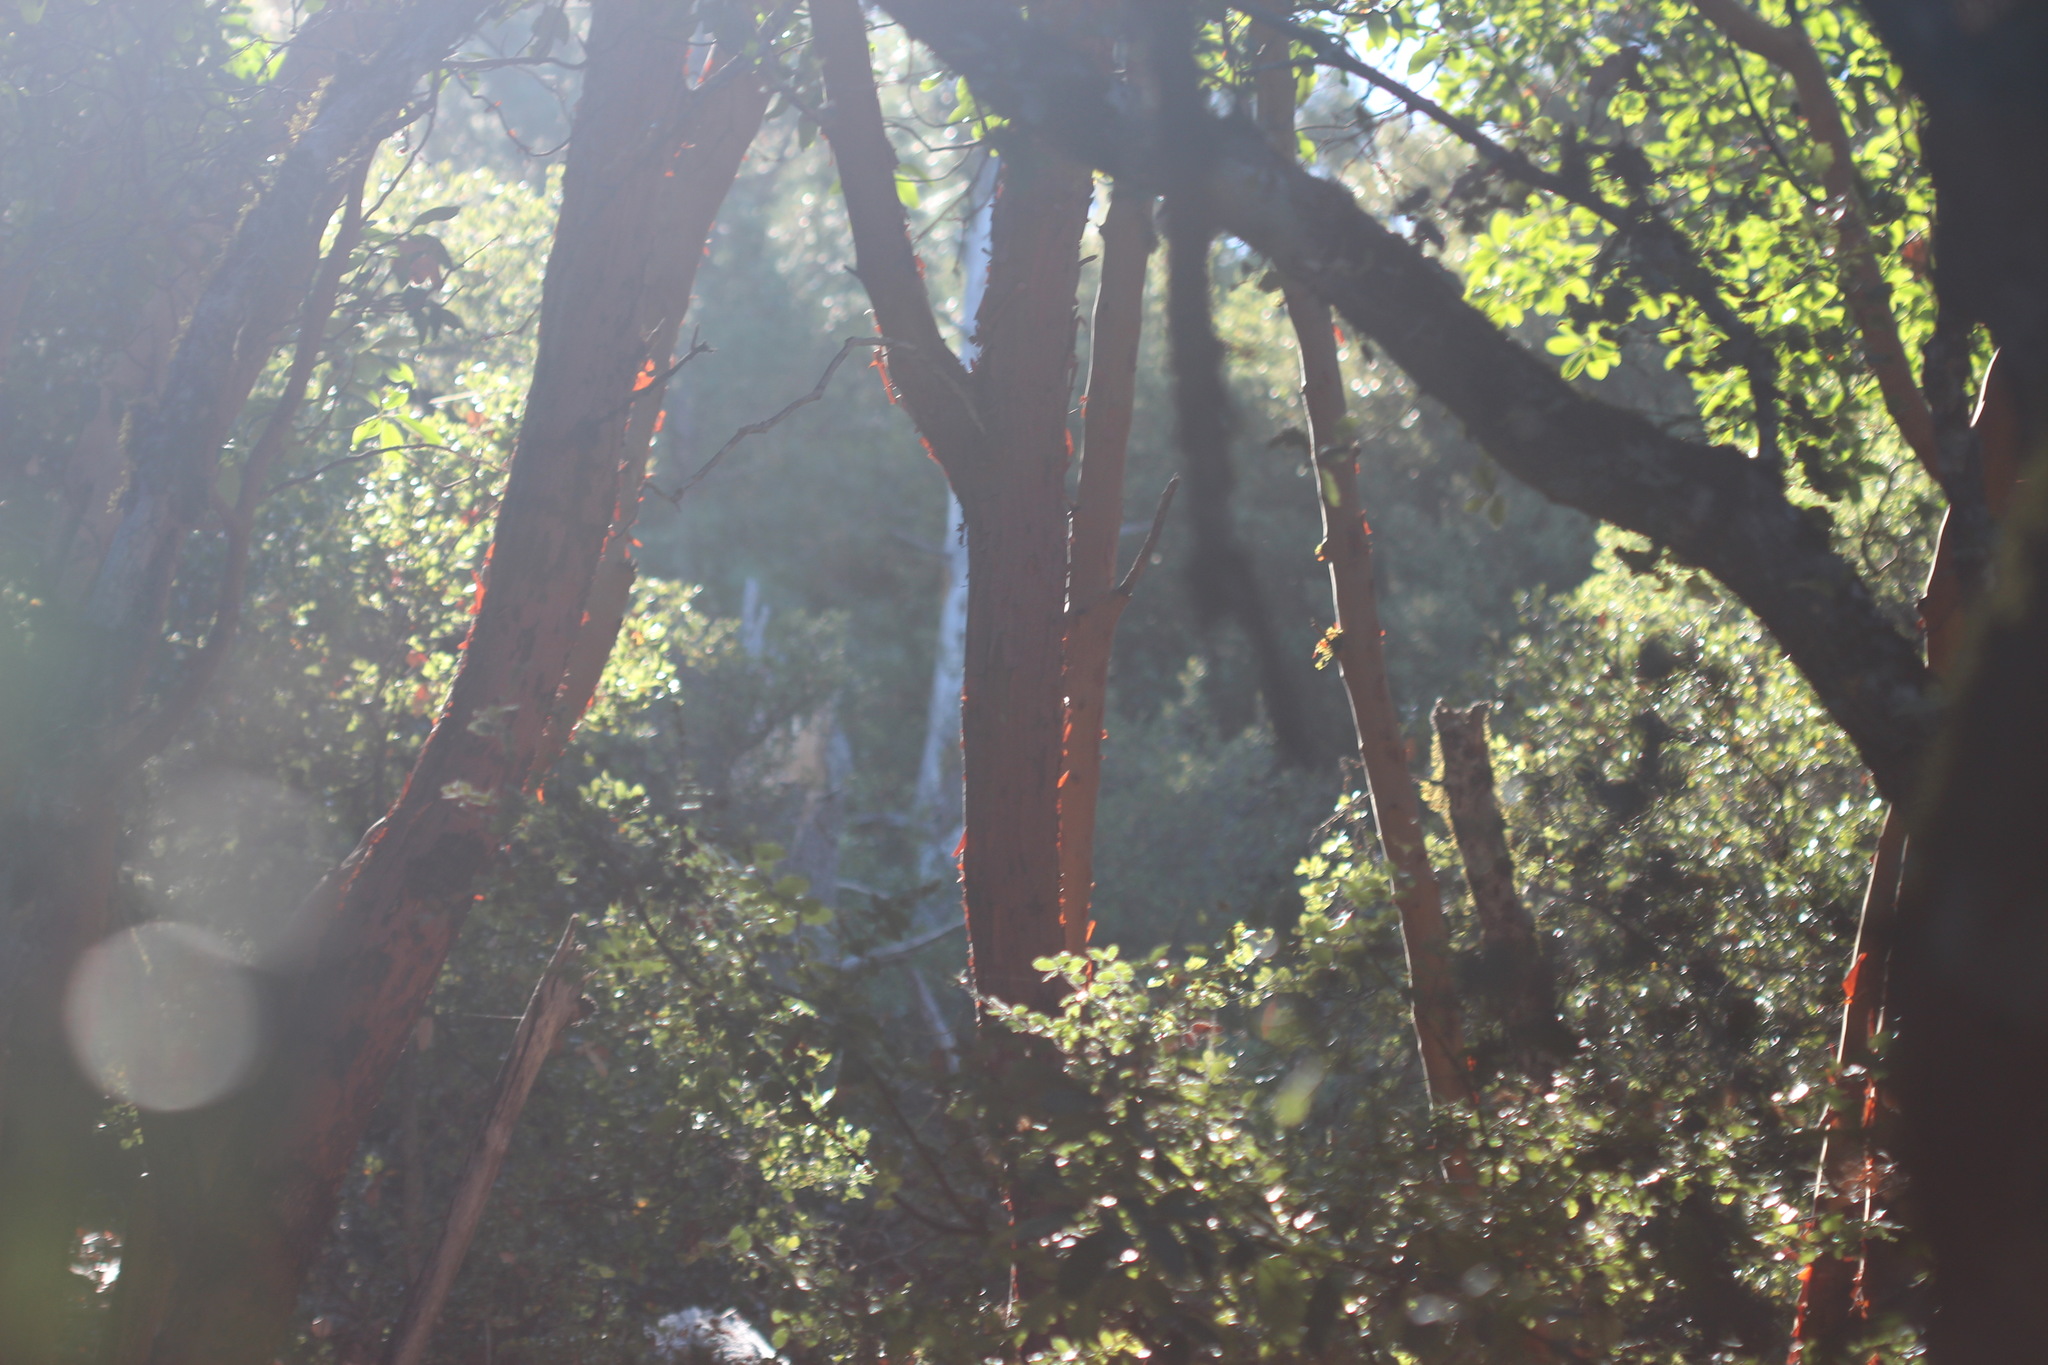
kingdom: Plantae
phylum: Tracheophyta
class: Magnoliopsida
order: Ericales
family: Ericaceae
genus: Arbutus
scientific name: Arbutus menziesii
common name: Pacific madrone
